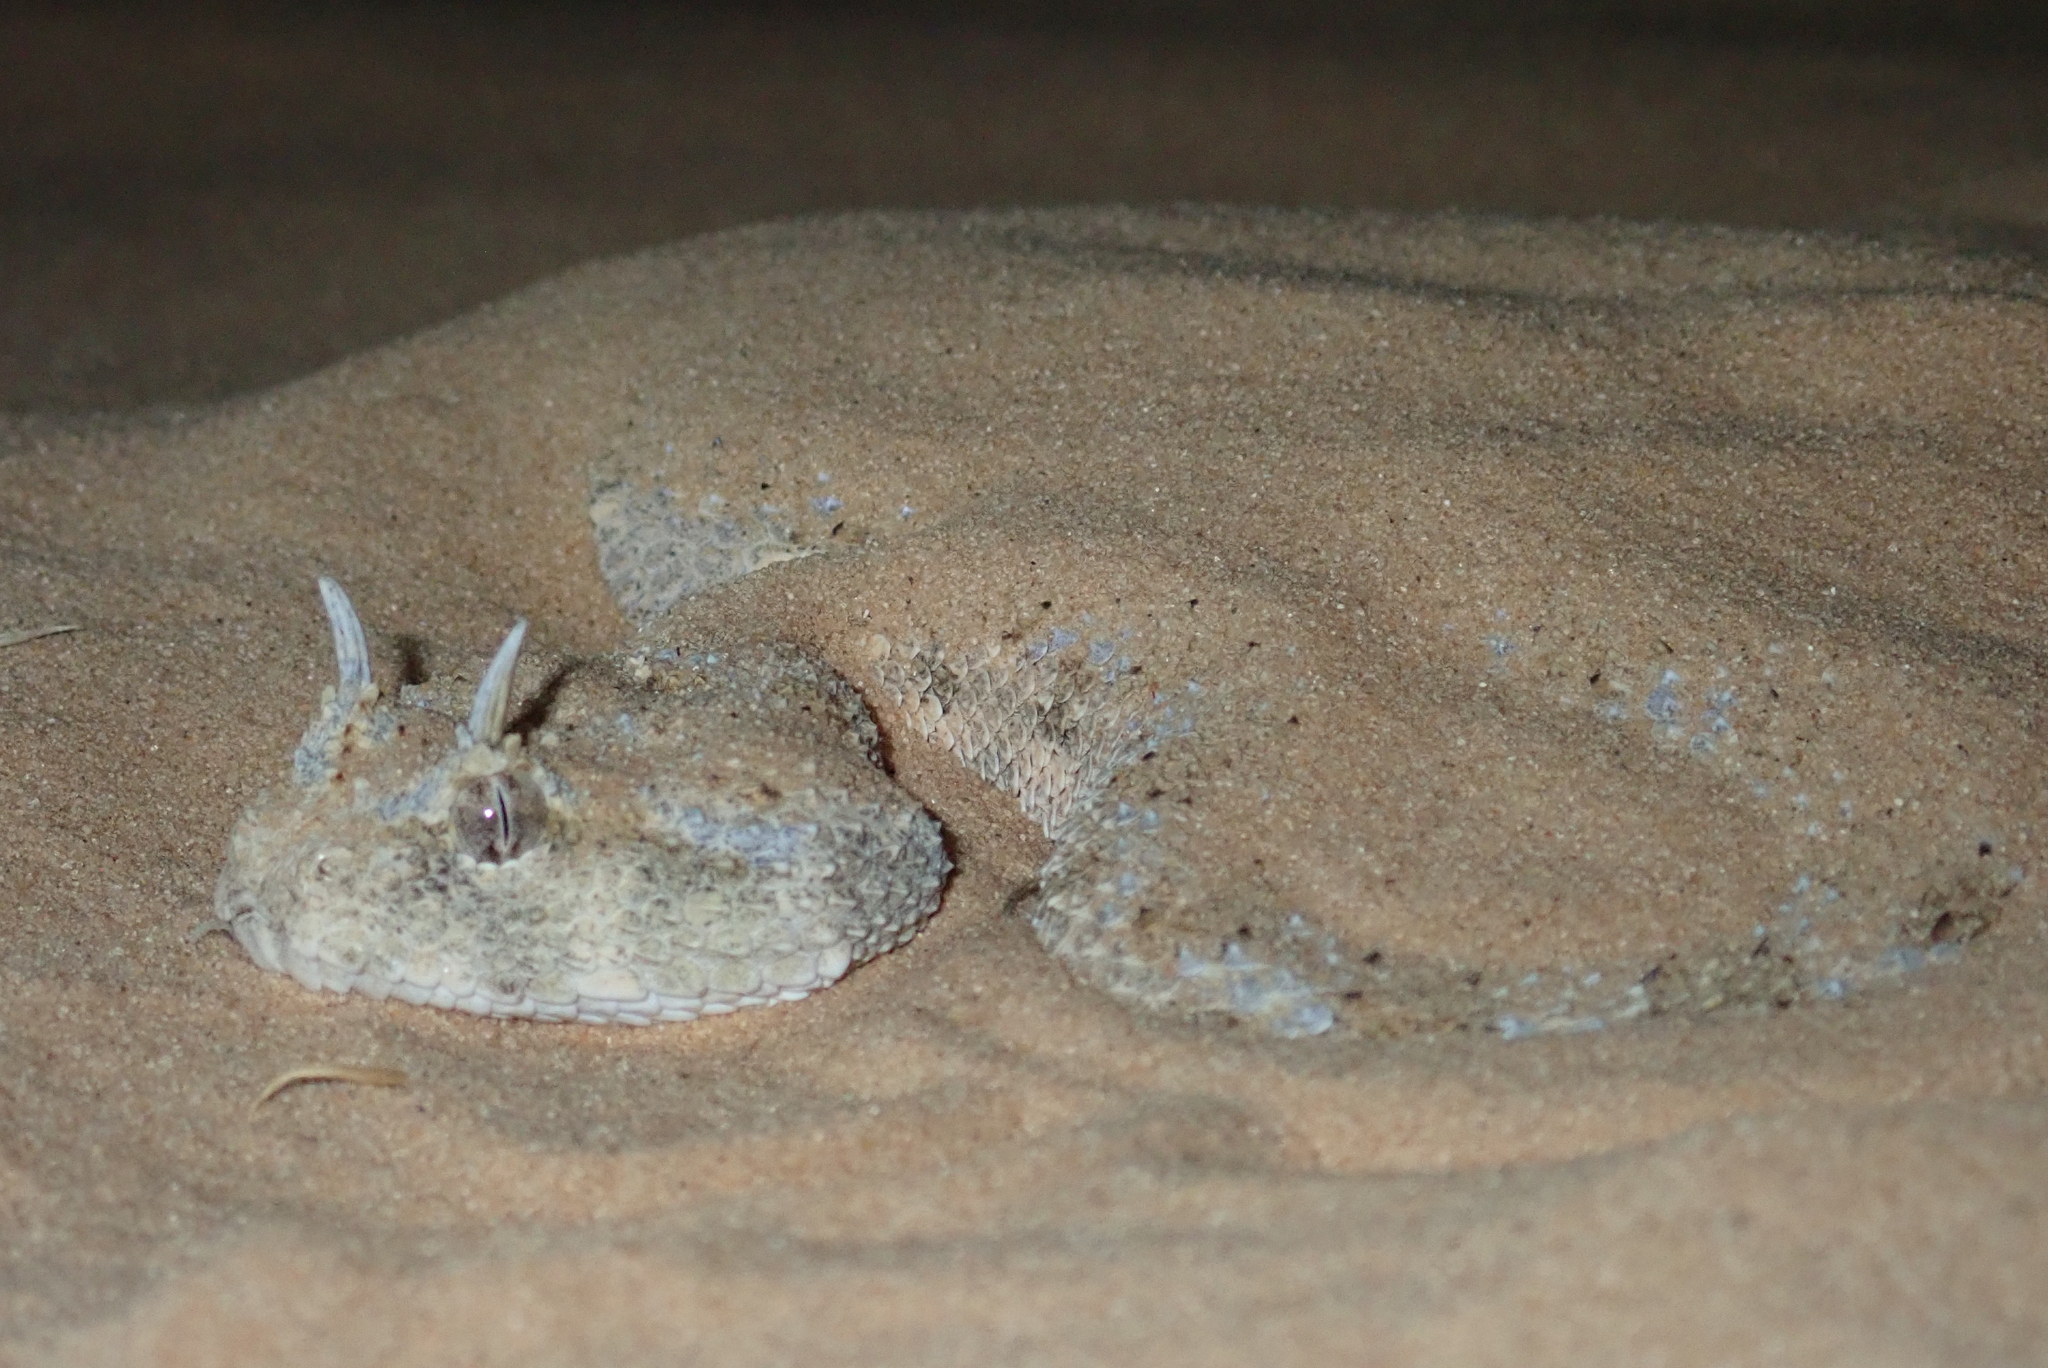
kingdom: Animalia
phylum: Chordata
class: Squamata
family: Viperidae
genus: Cerastes
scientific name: Cerastes cerastes
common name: Desert horned viper
